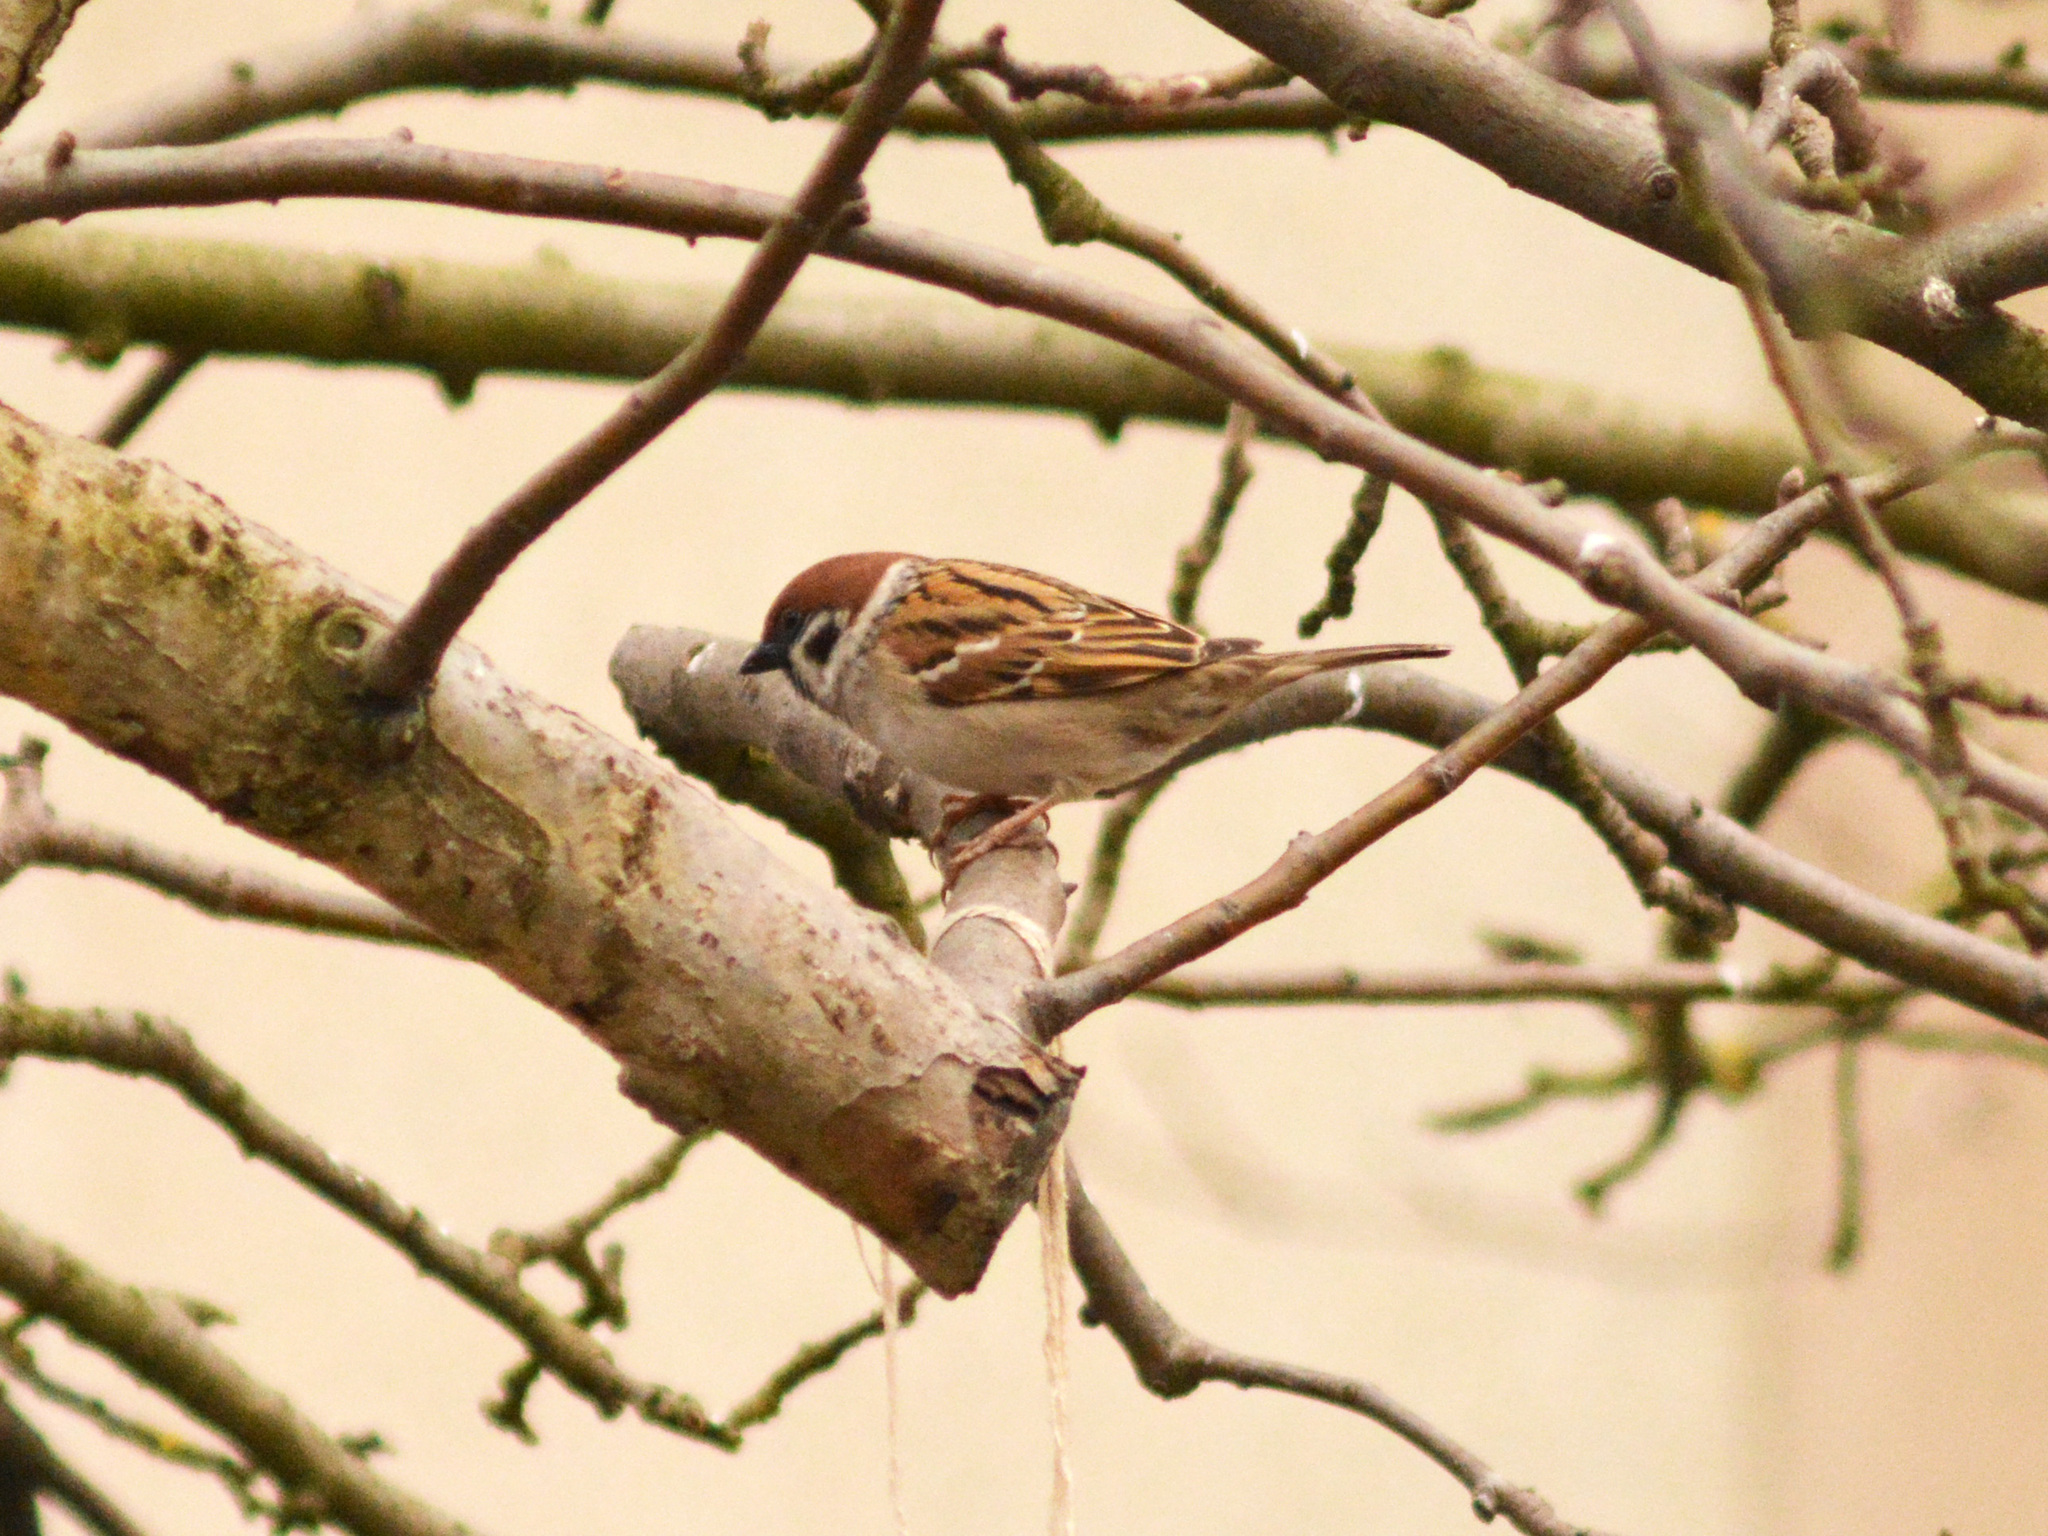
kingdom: Animalia
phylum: Chordata
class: Aves
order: Passeriformes
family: Passeridae
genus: Passer
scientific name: Passer montanus
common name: Eurasian tree sparrow
